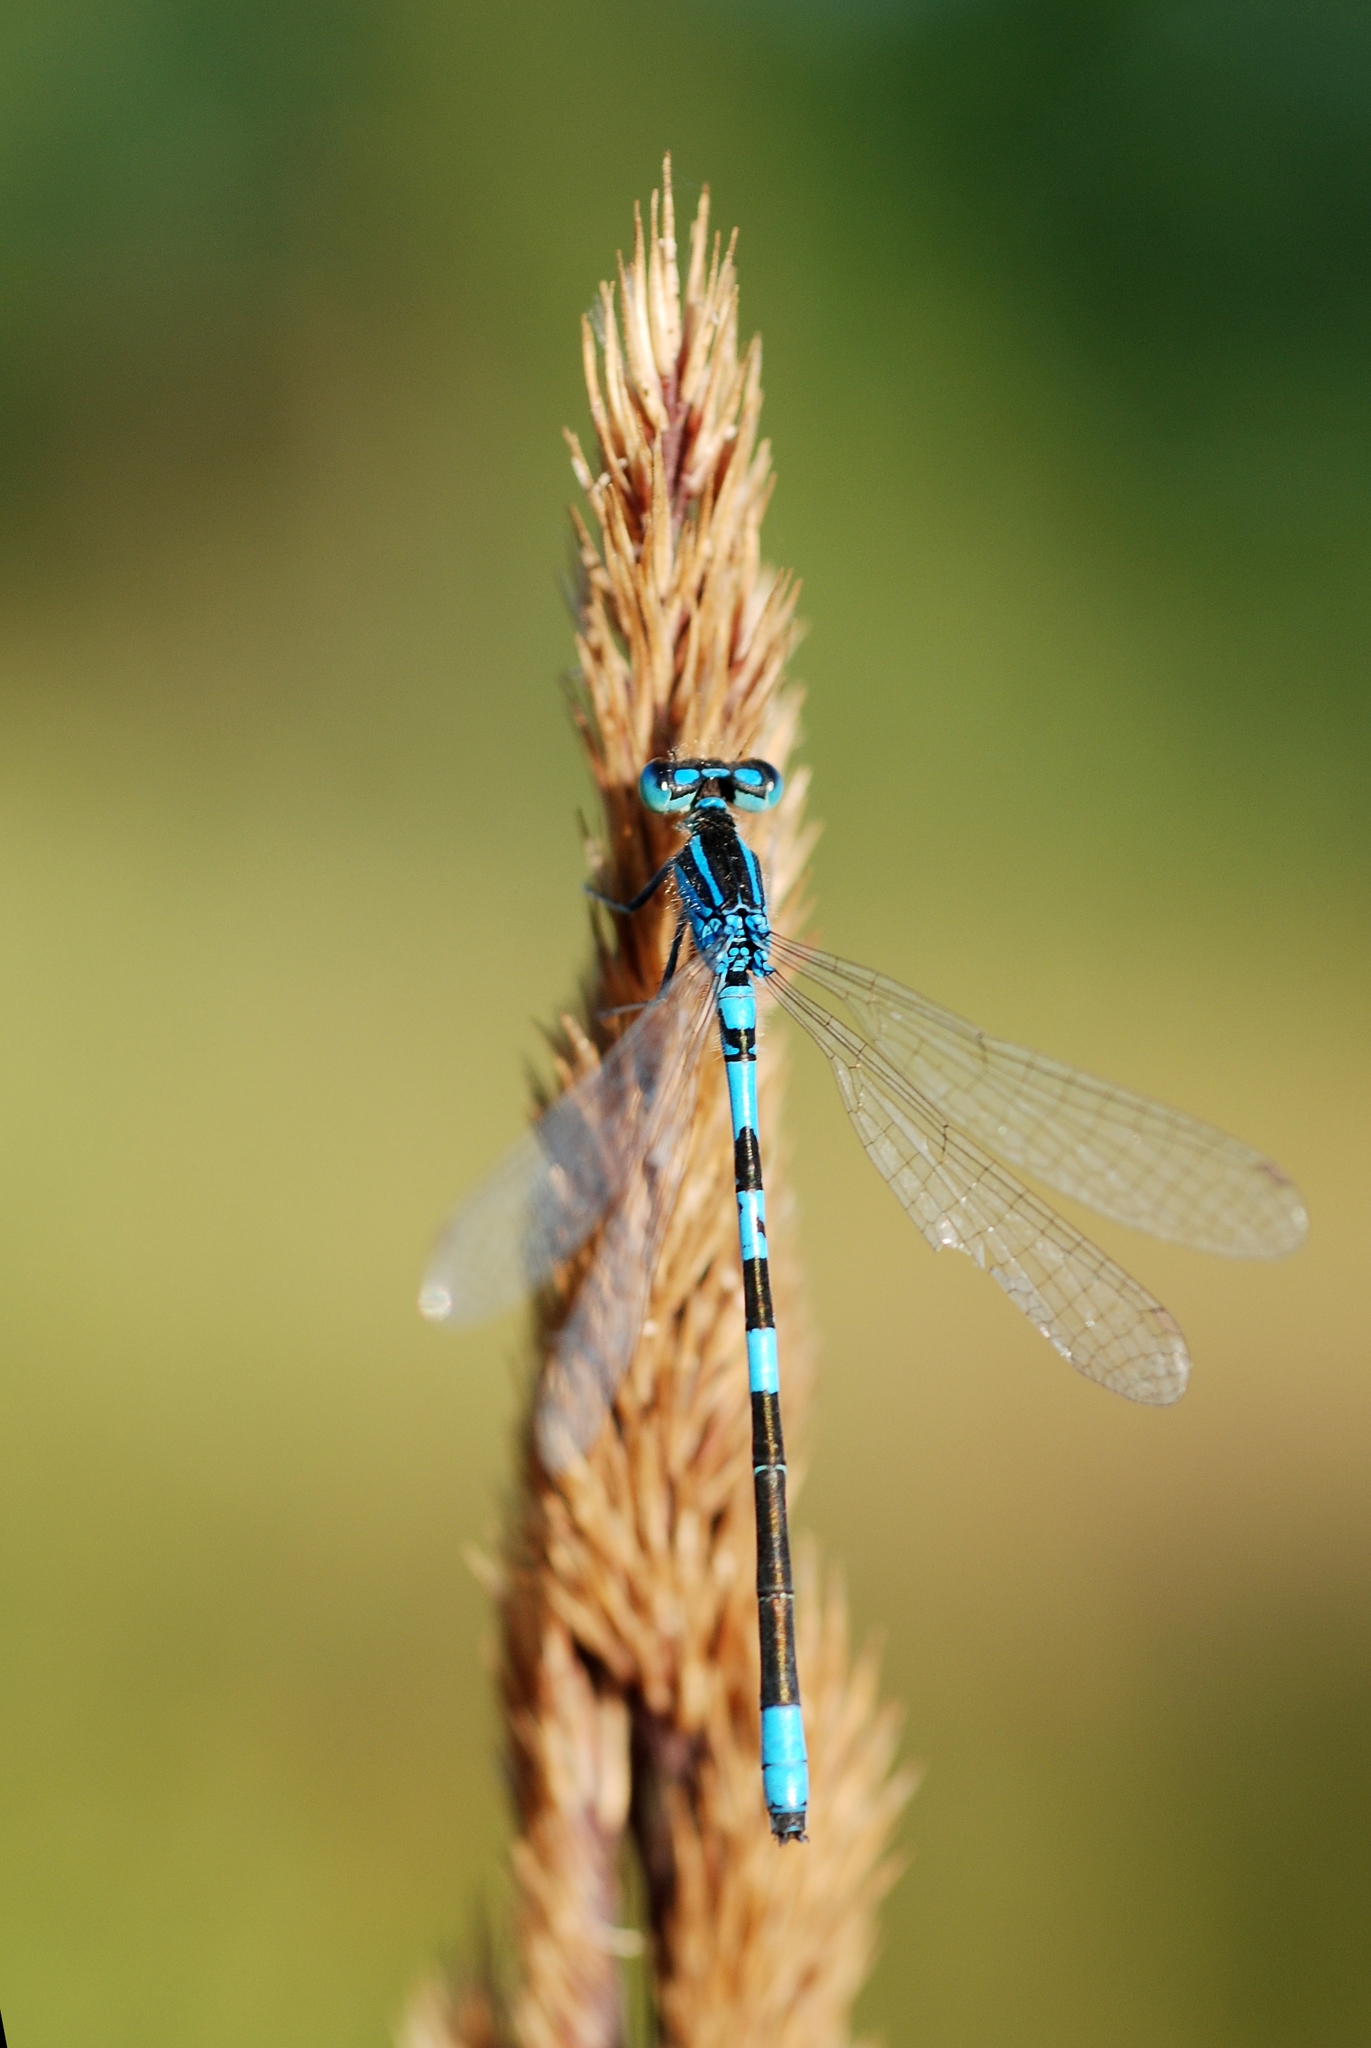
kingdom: Animalia
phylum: Arthropoda
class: Insecta
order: Odonata
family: Coenagrionidae
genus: Coenagrion
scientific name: Coenagrion scitulum
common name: Dainty bluet
